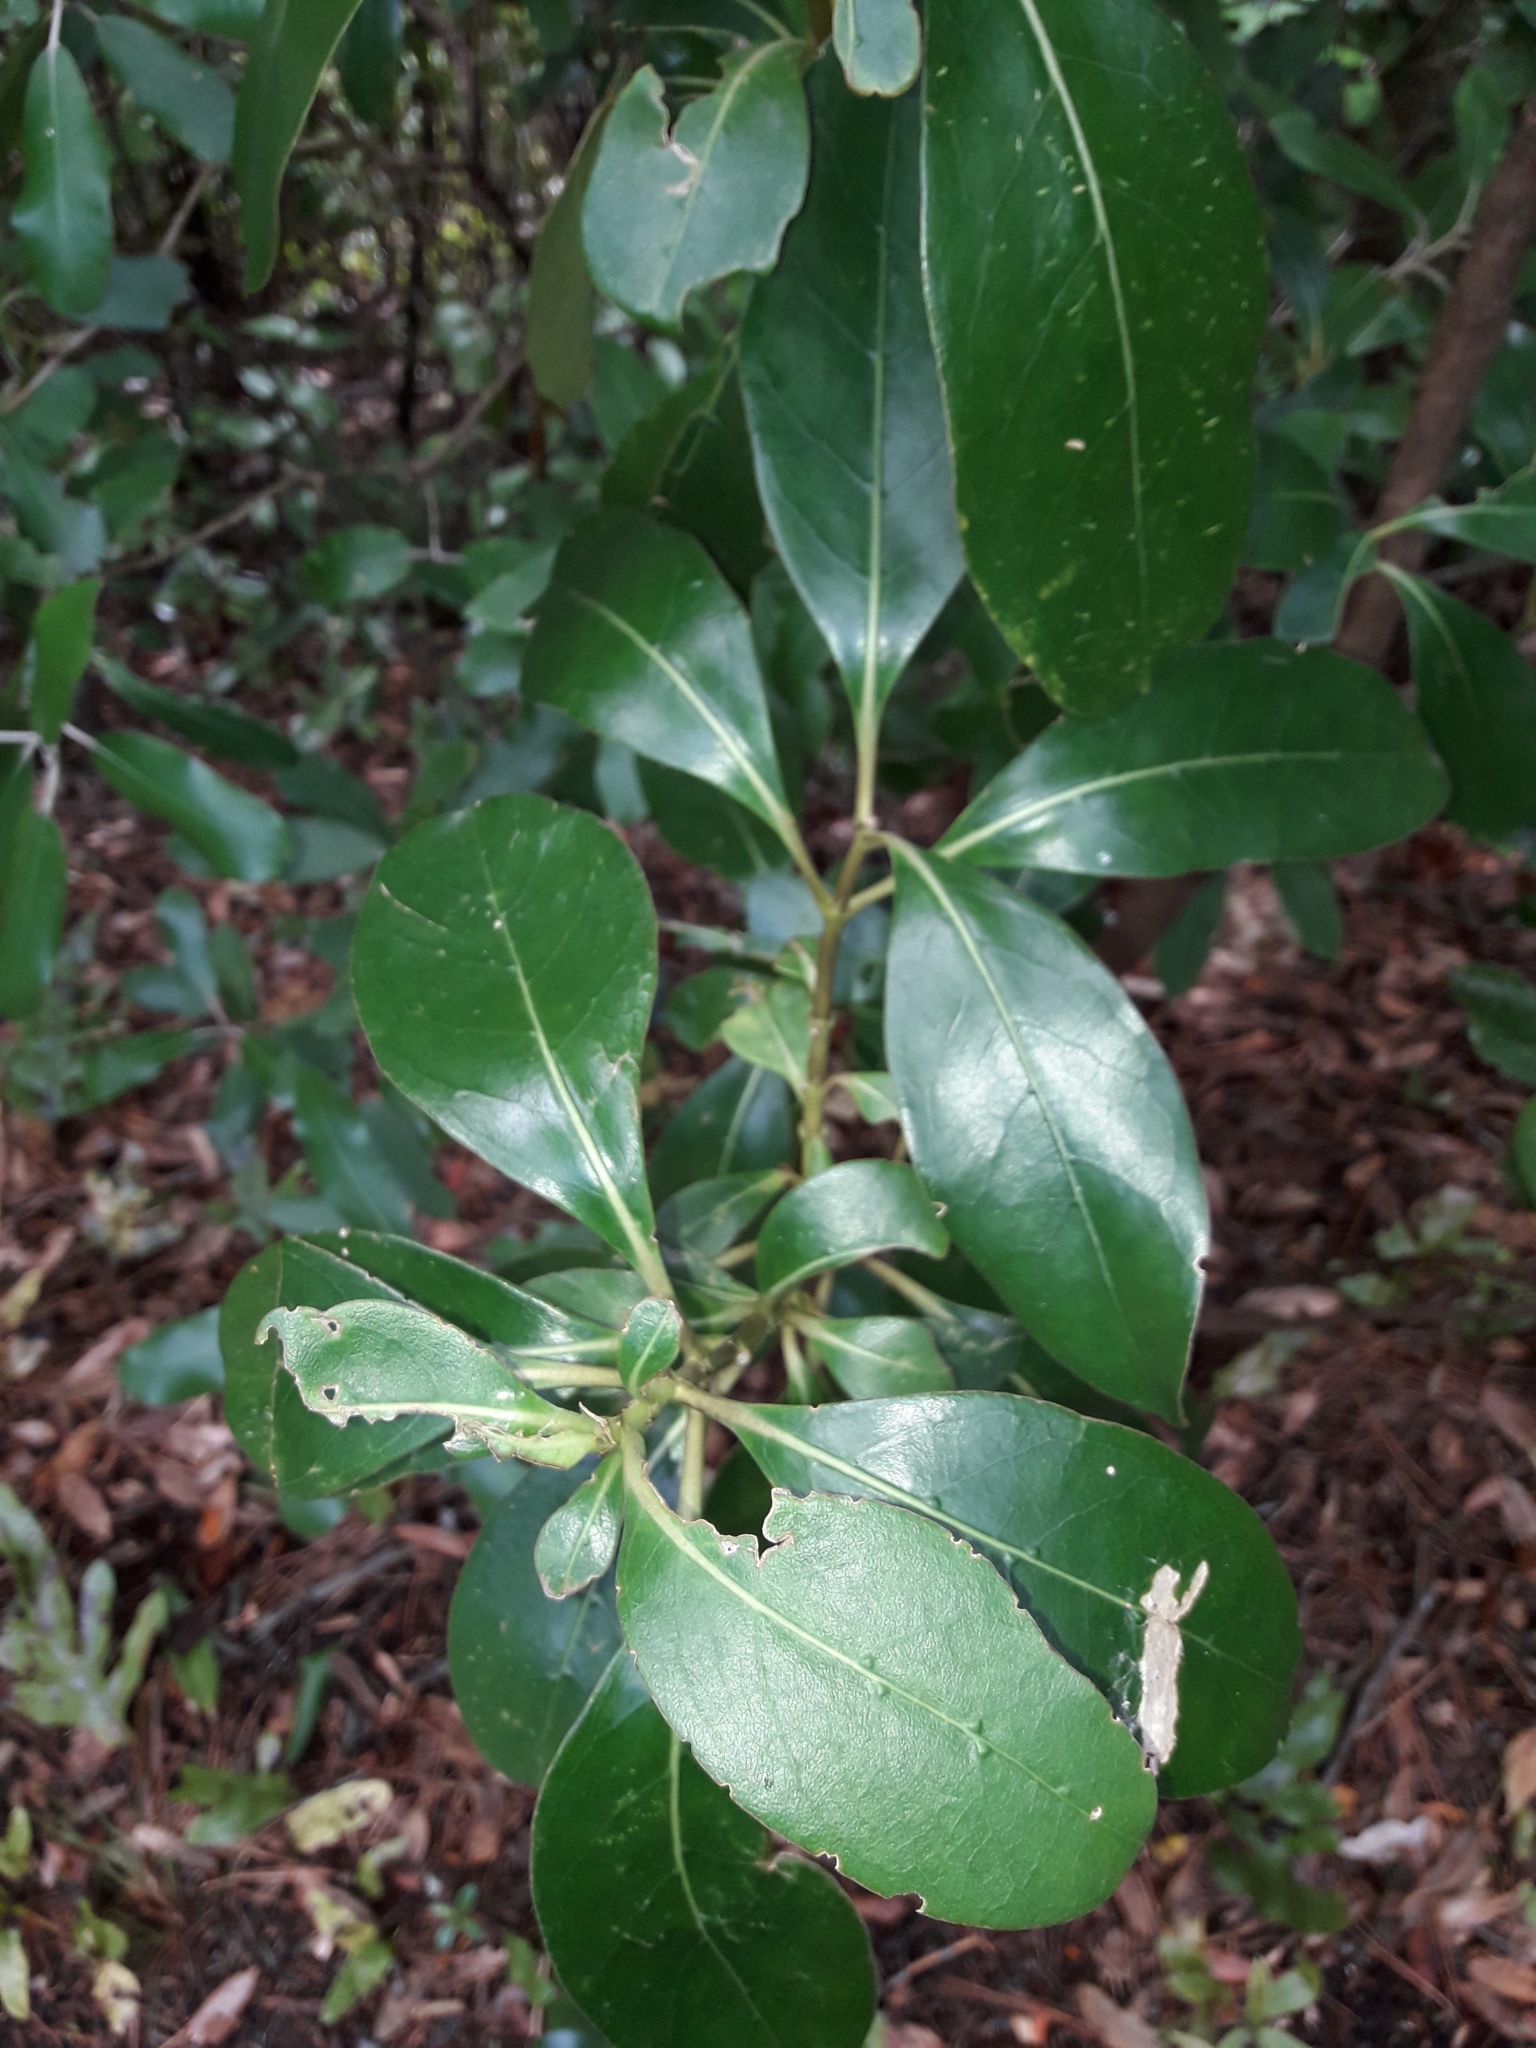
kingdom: Plantae
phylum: Tracheophyta
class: Magnoliopsida
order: Gentianales
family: Rubiaceae
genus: Coprosma
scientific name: Coprosma lucida
